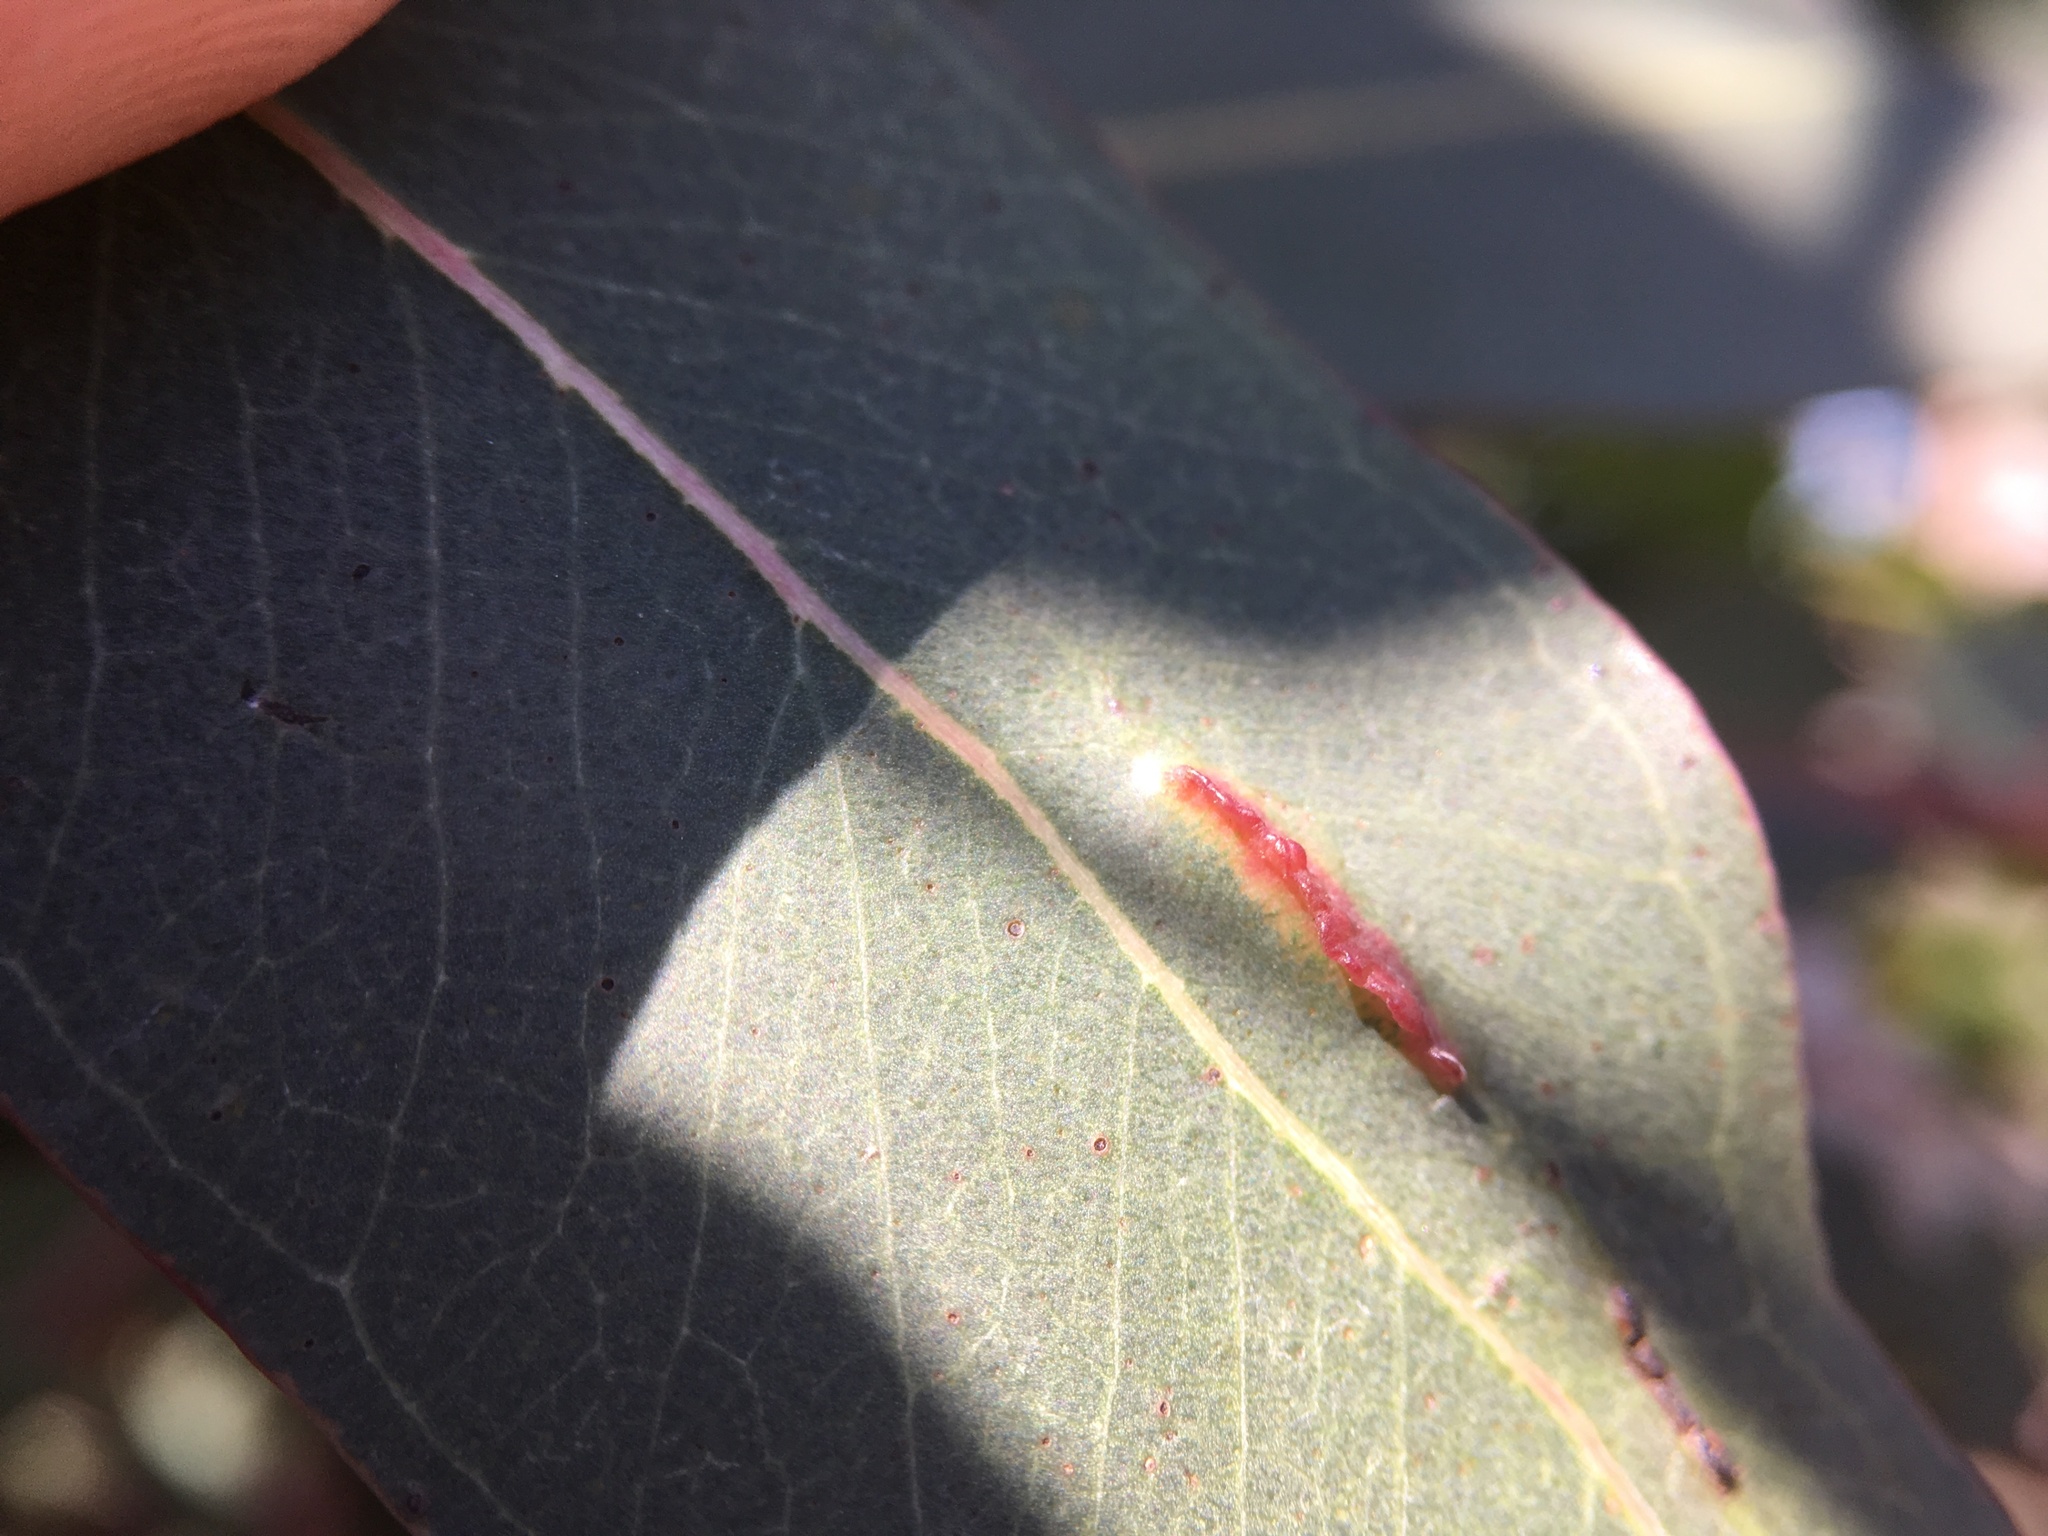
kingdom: Animalia
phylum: Arthropoda
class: Insecta
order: Hymenoptera
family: Pteromalidae
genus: Nambouria
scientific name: Nambouria xanthops
